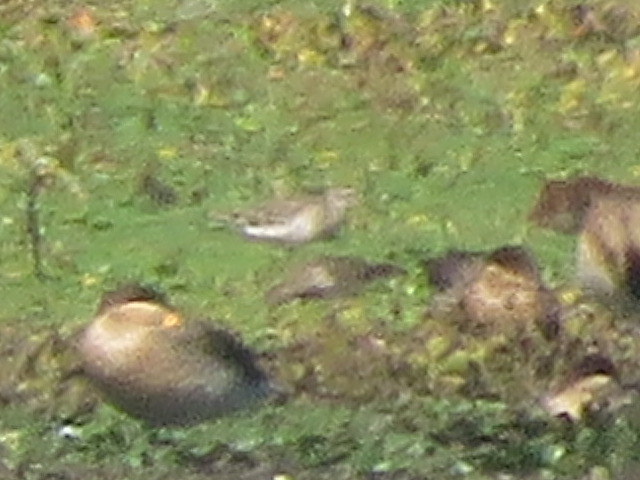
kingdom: Animalia
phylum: Chordata
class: Aves
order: Charadriiformes
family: Scolopacidae
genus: Calidris
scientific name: Calidris melanotos
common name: Pectoral sandpiper
